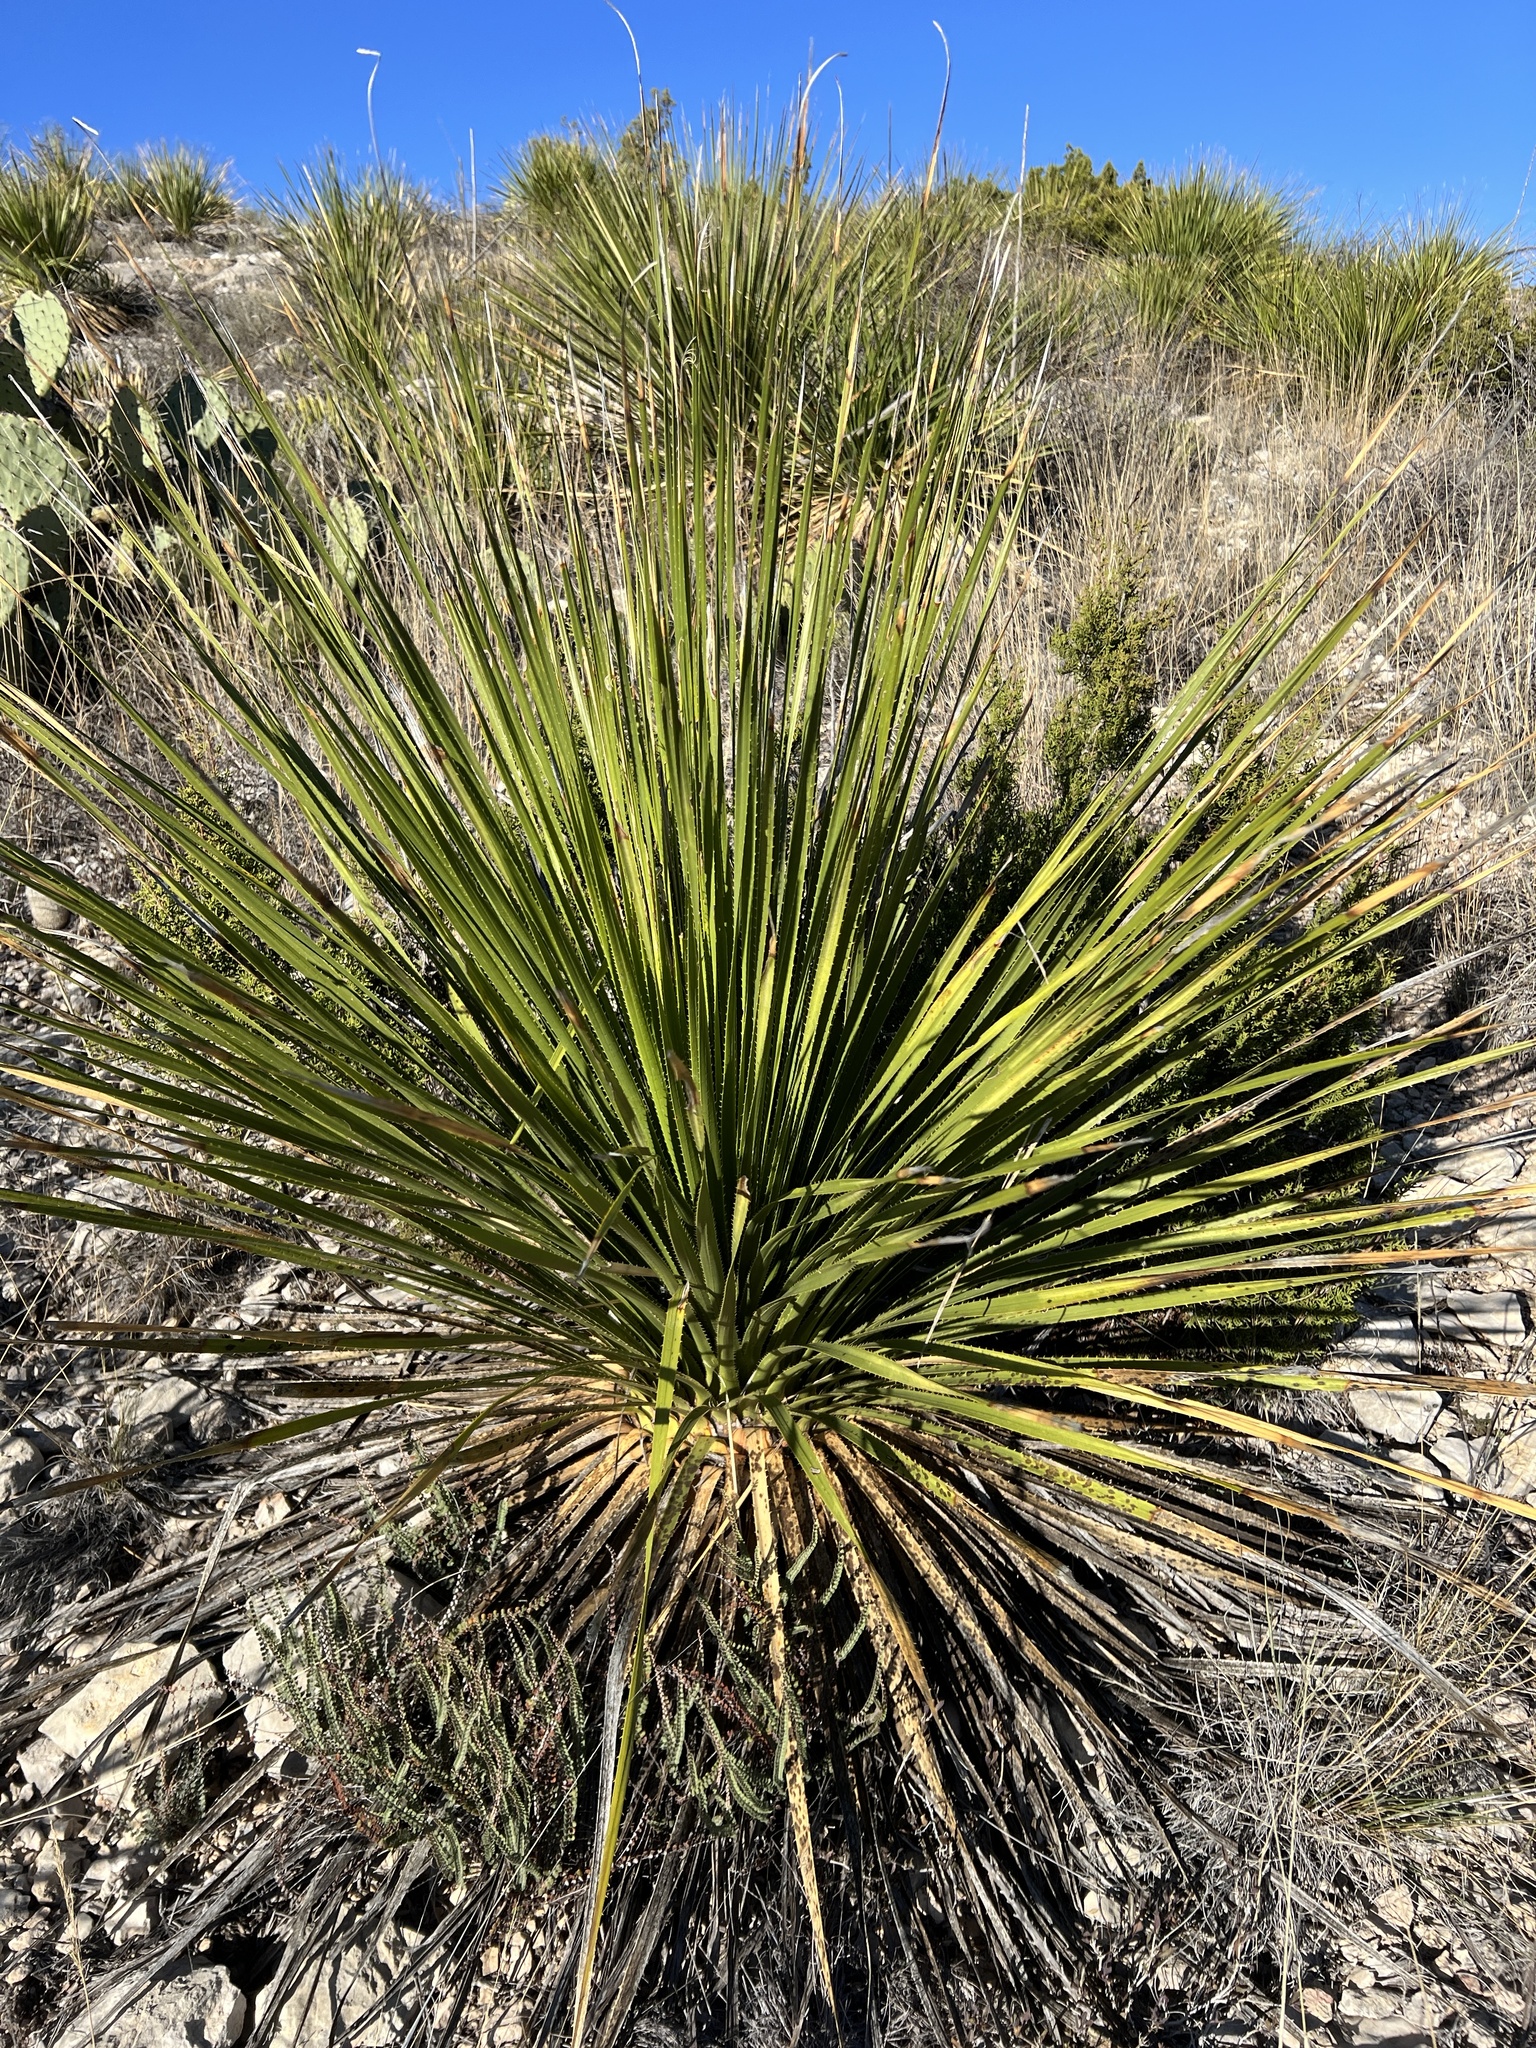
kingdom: Plantae
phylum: Tracheophyta
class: Liliopsida
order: Asparagales
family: Asparagaceae
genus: Dasylirion
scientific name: Dasylirion texanum
